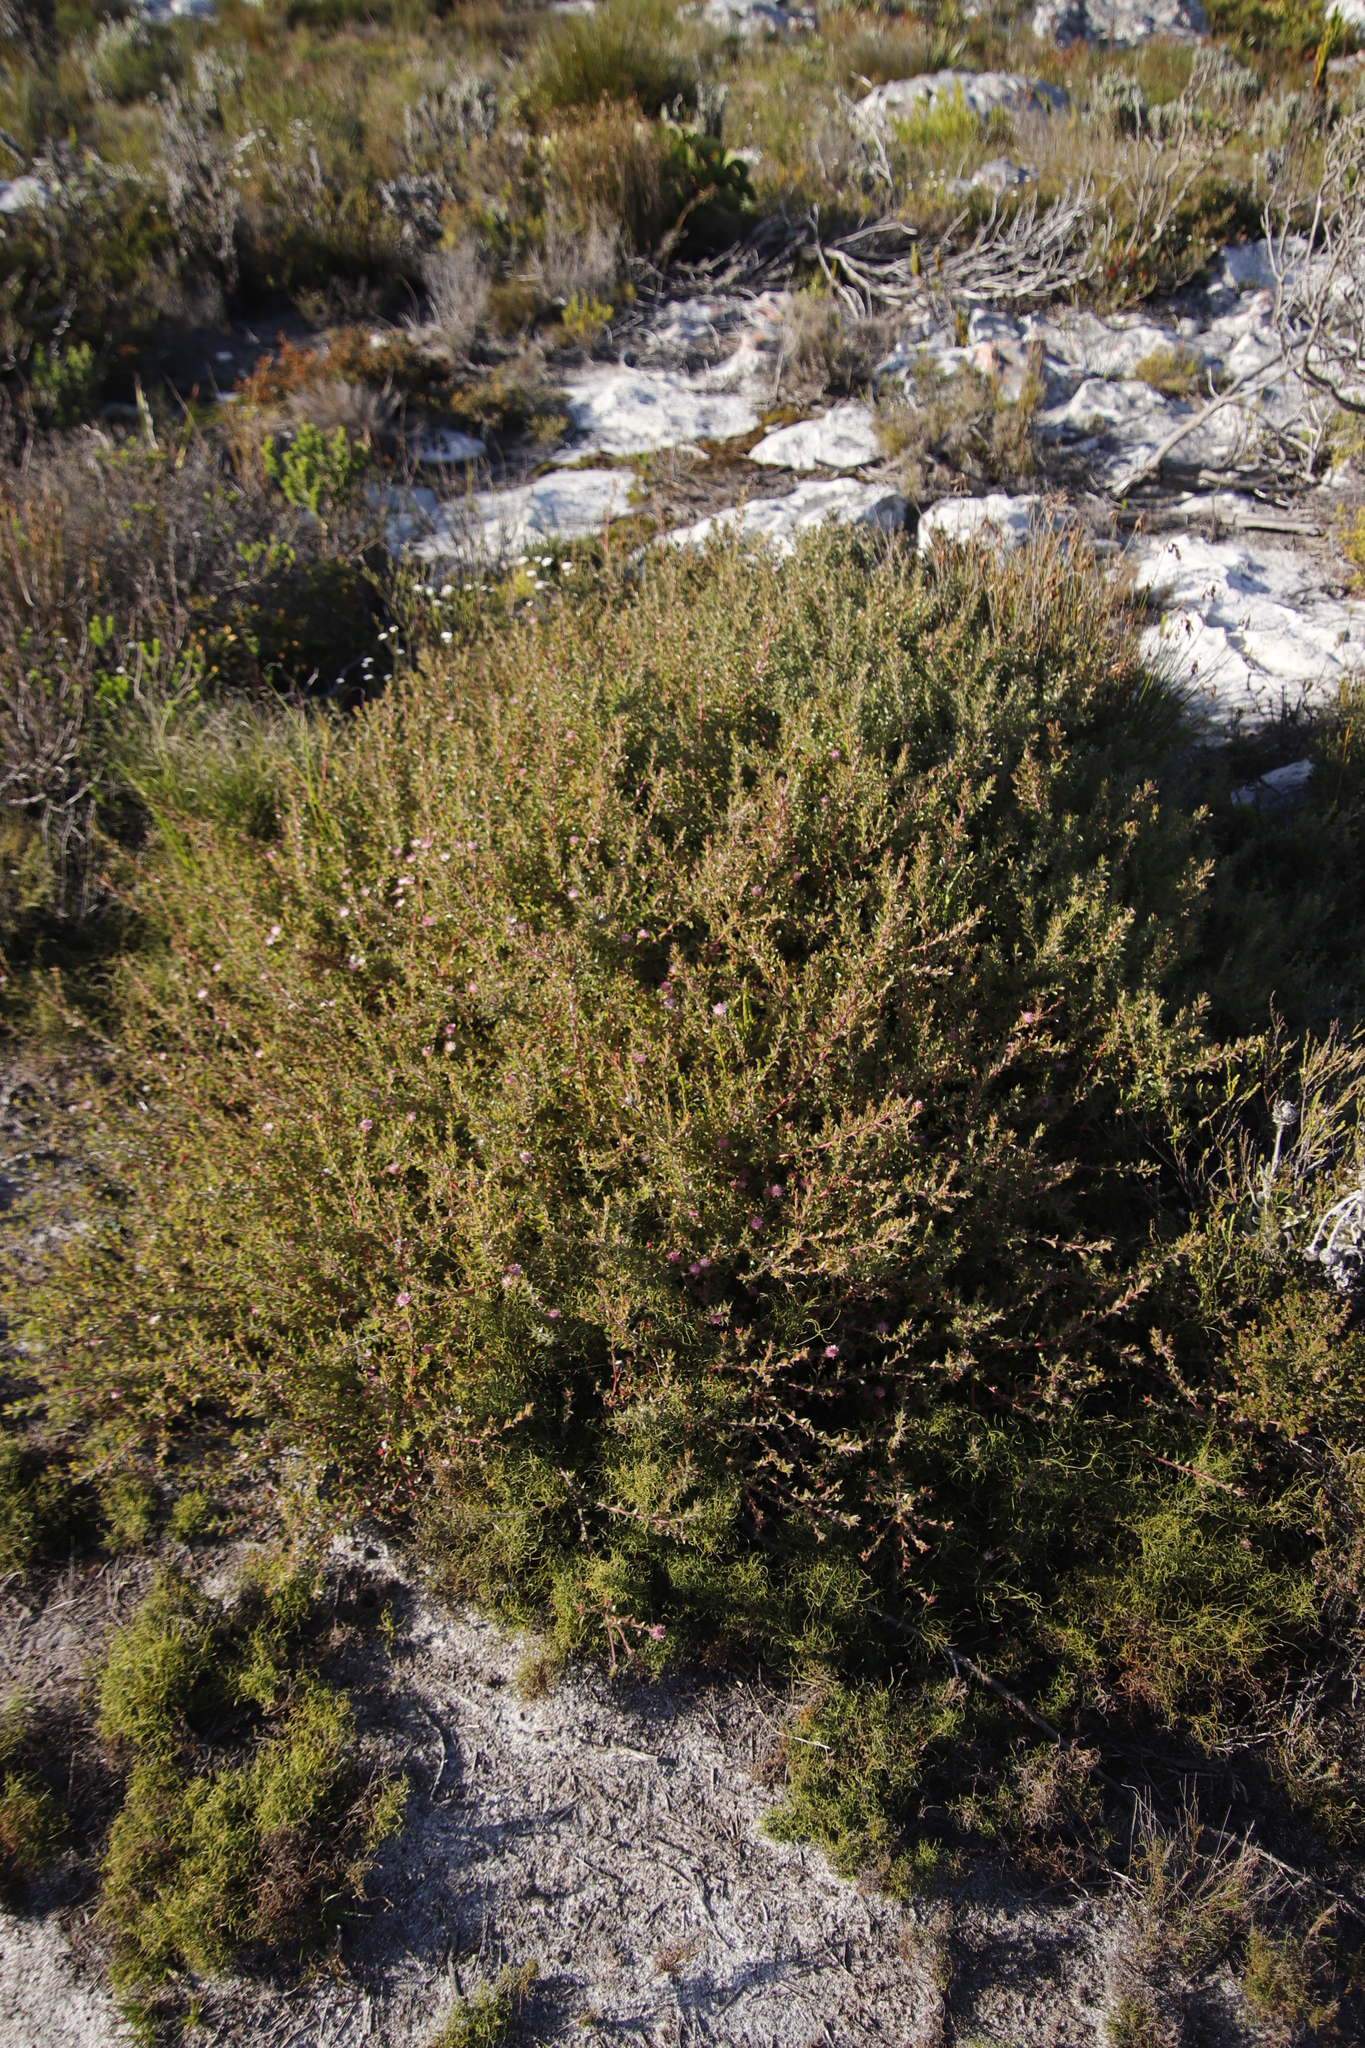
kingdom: Plantae
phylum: Tracheophyta
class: Magnoliopsida
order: Proteales
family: Proteaceae
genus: Diastella
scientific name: Diastella divaricata
